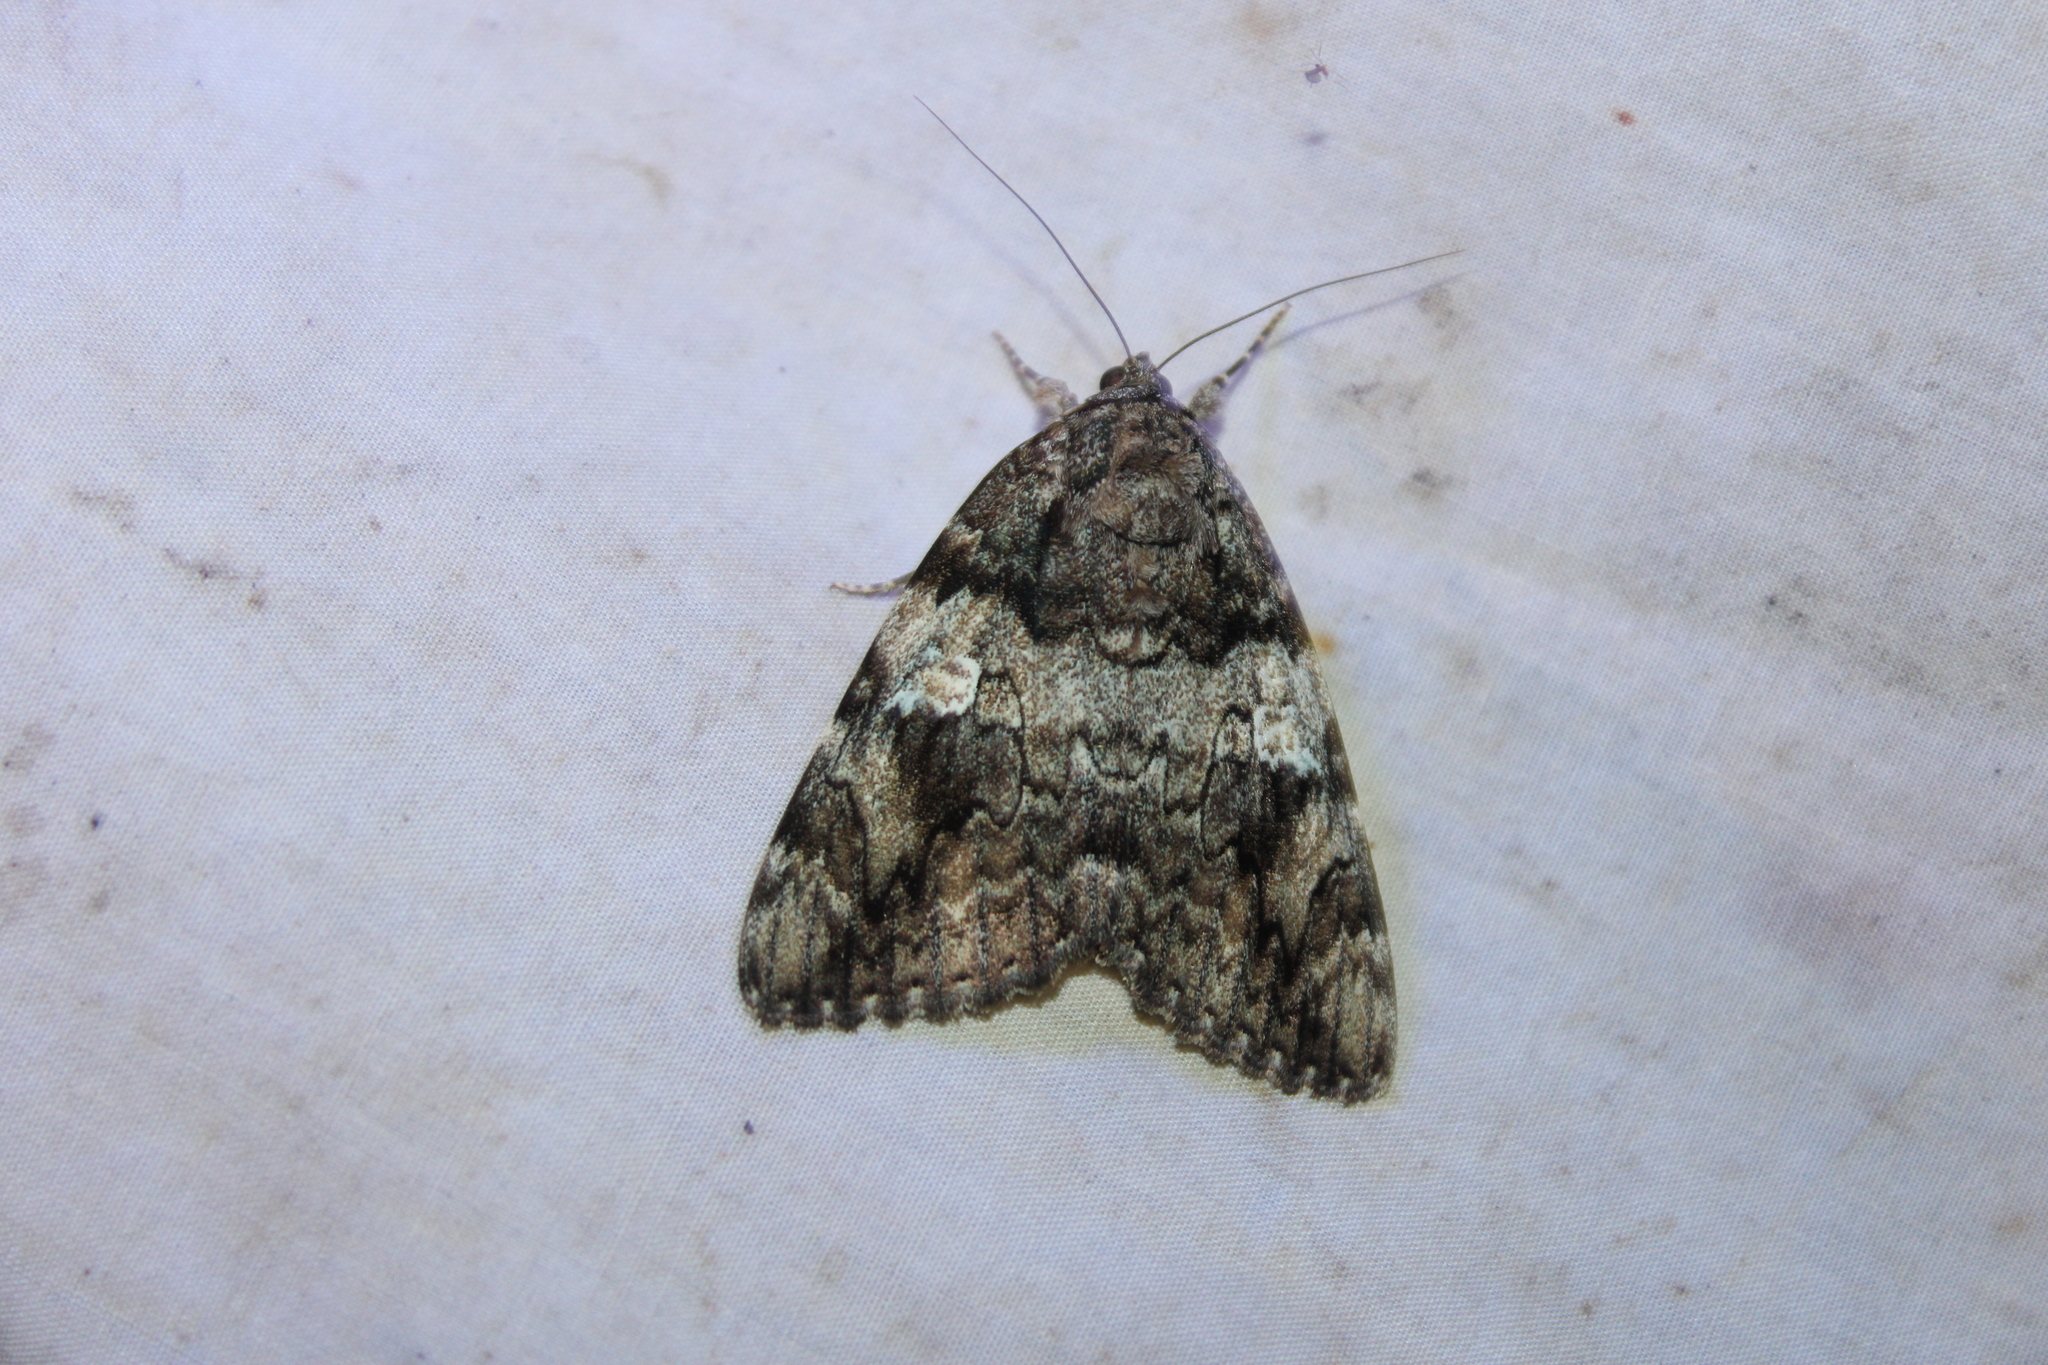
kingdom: Animalia
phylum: Arthropoda
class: Insecta
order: Lepidoptera
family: Erebidae
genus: Catocala
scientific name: Catocala ilia
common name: Ilia underwing
